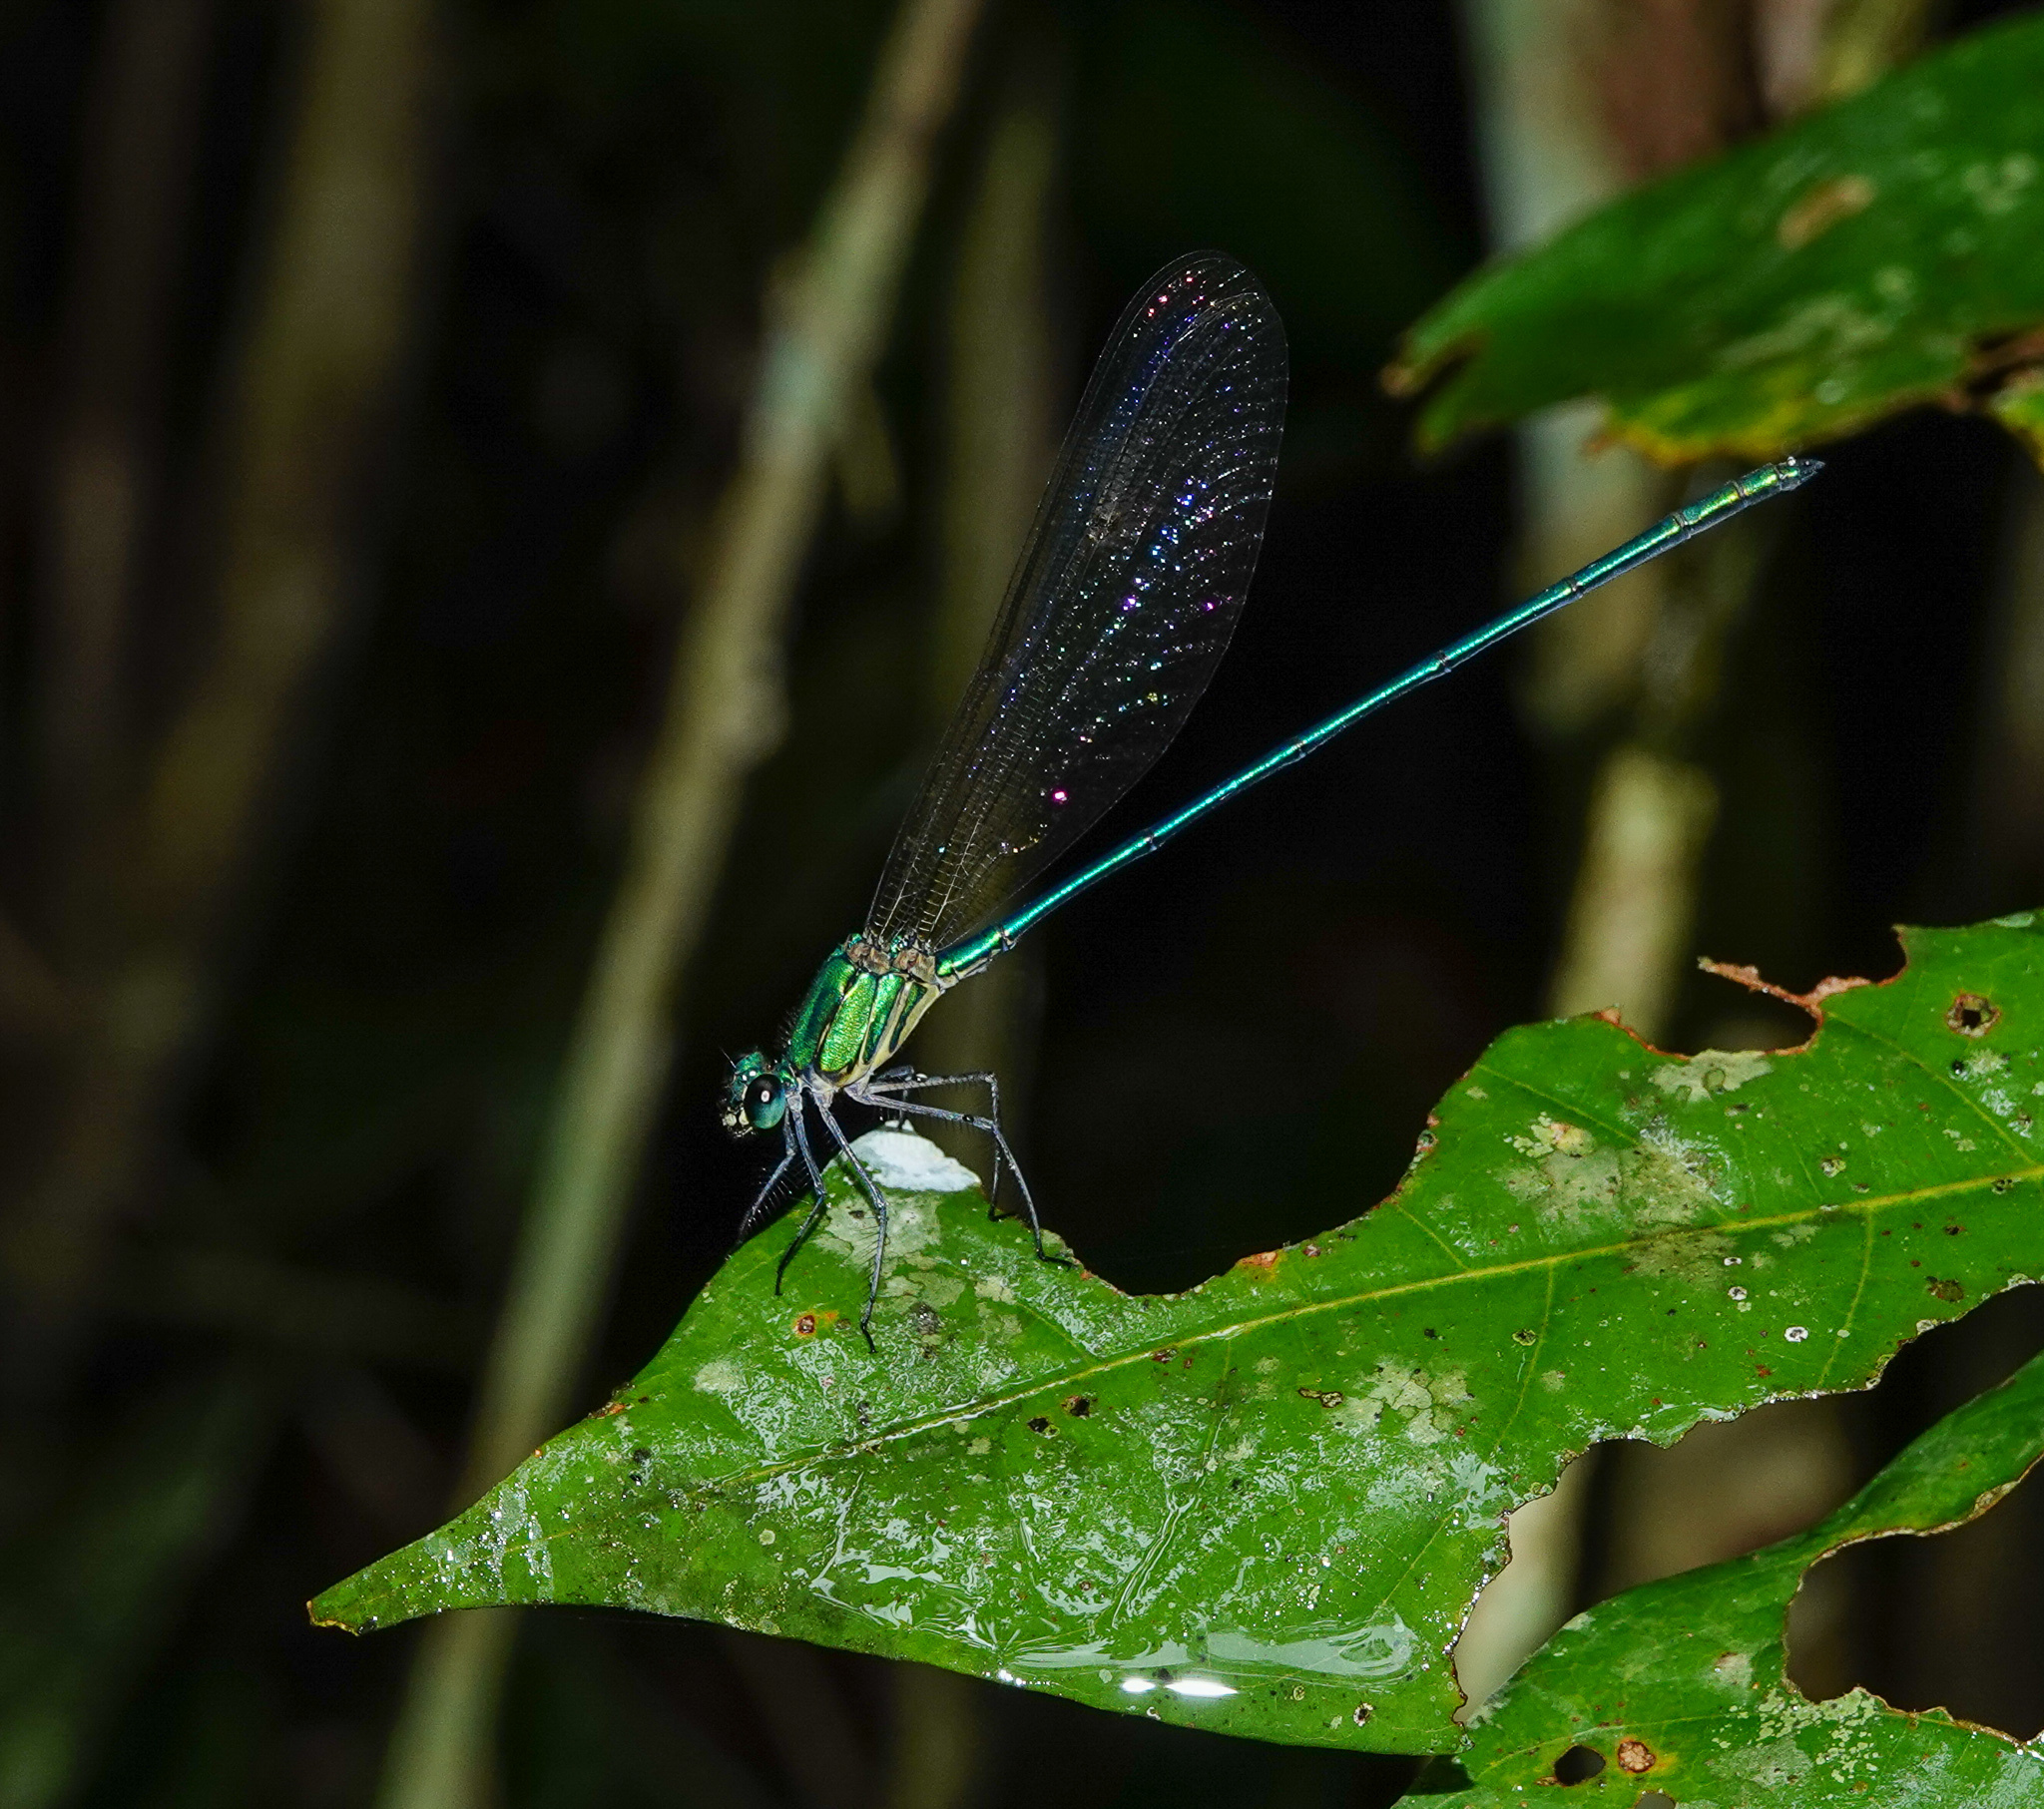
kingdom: Animalia
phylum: Arthropoda
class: Insecta
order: Odonata
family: Calopterygidae
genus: Vestalis
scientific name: Vestalis gracilis
